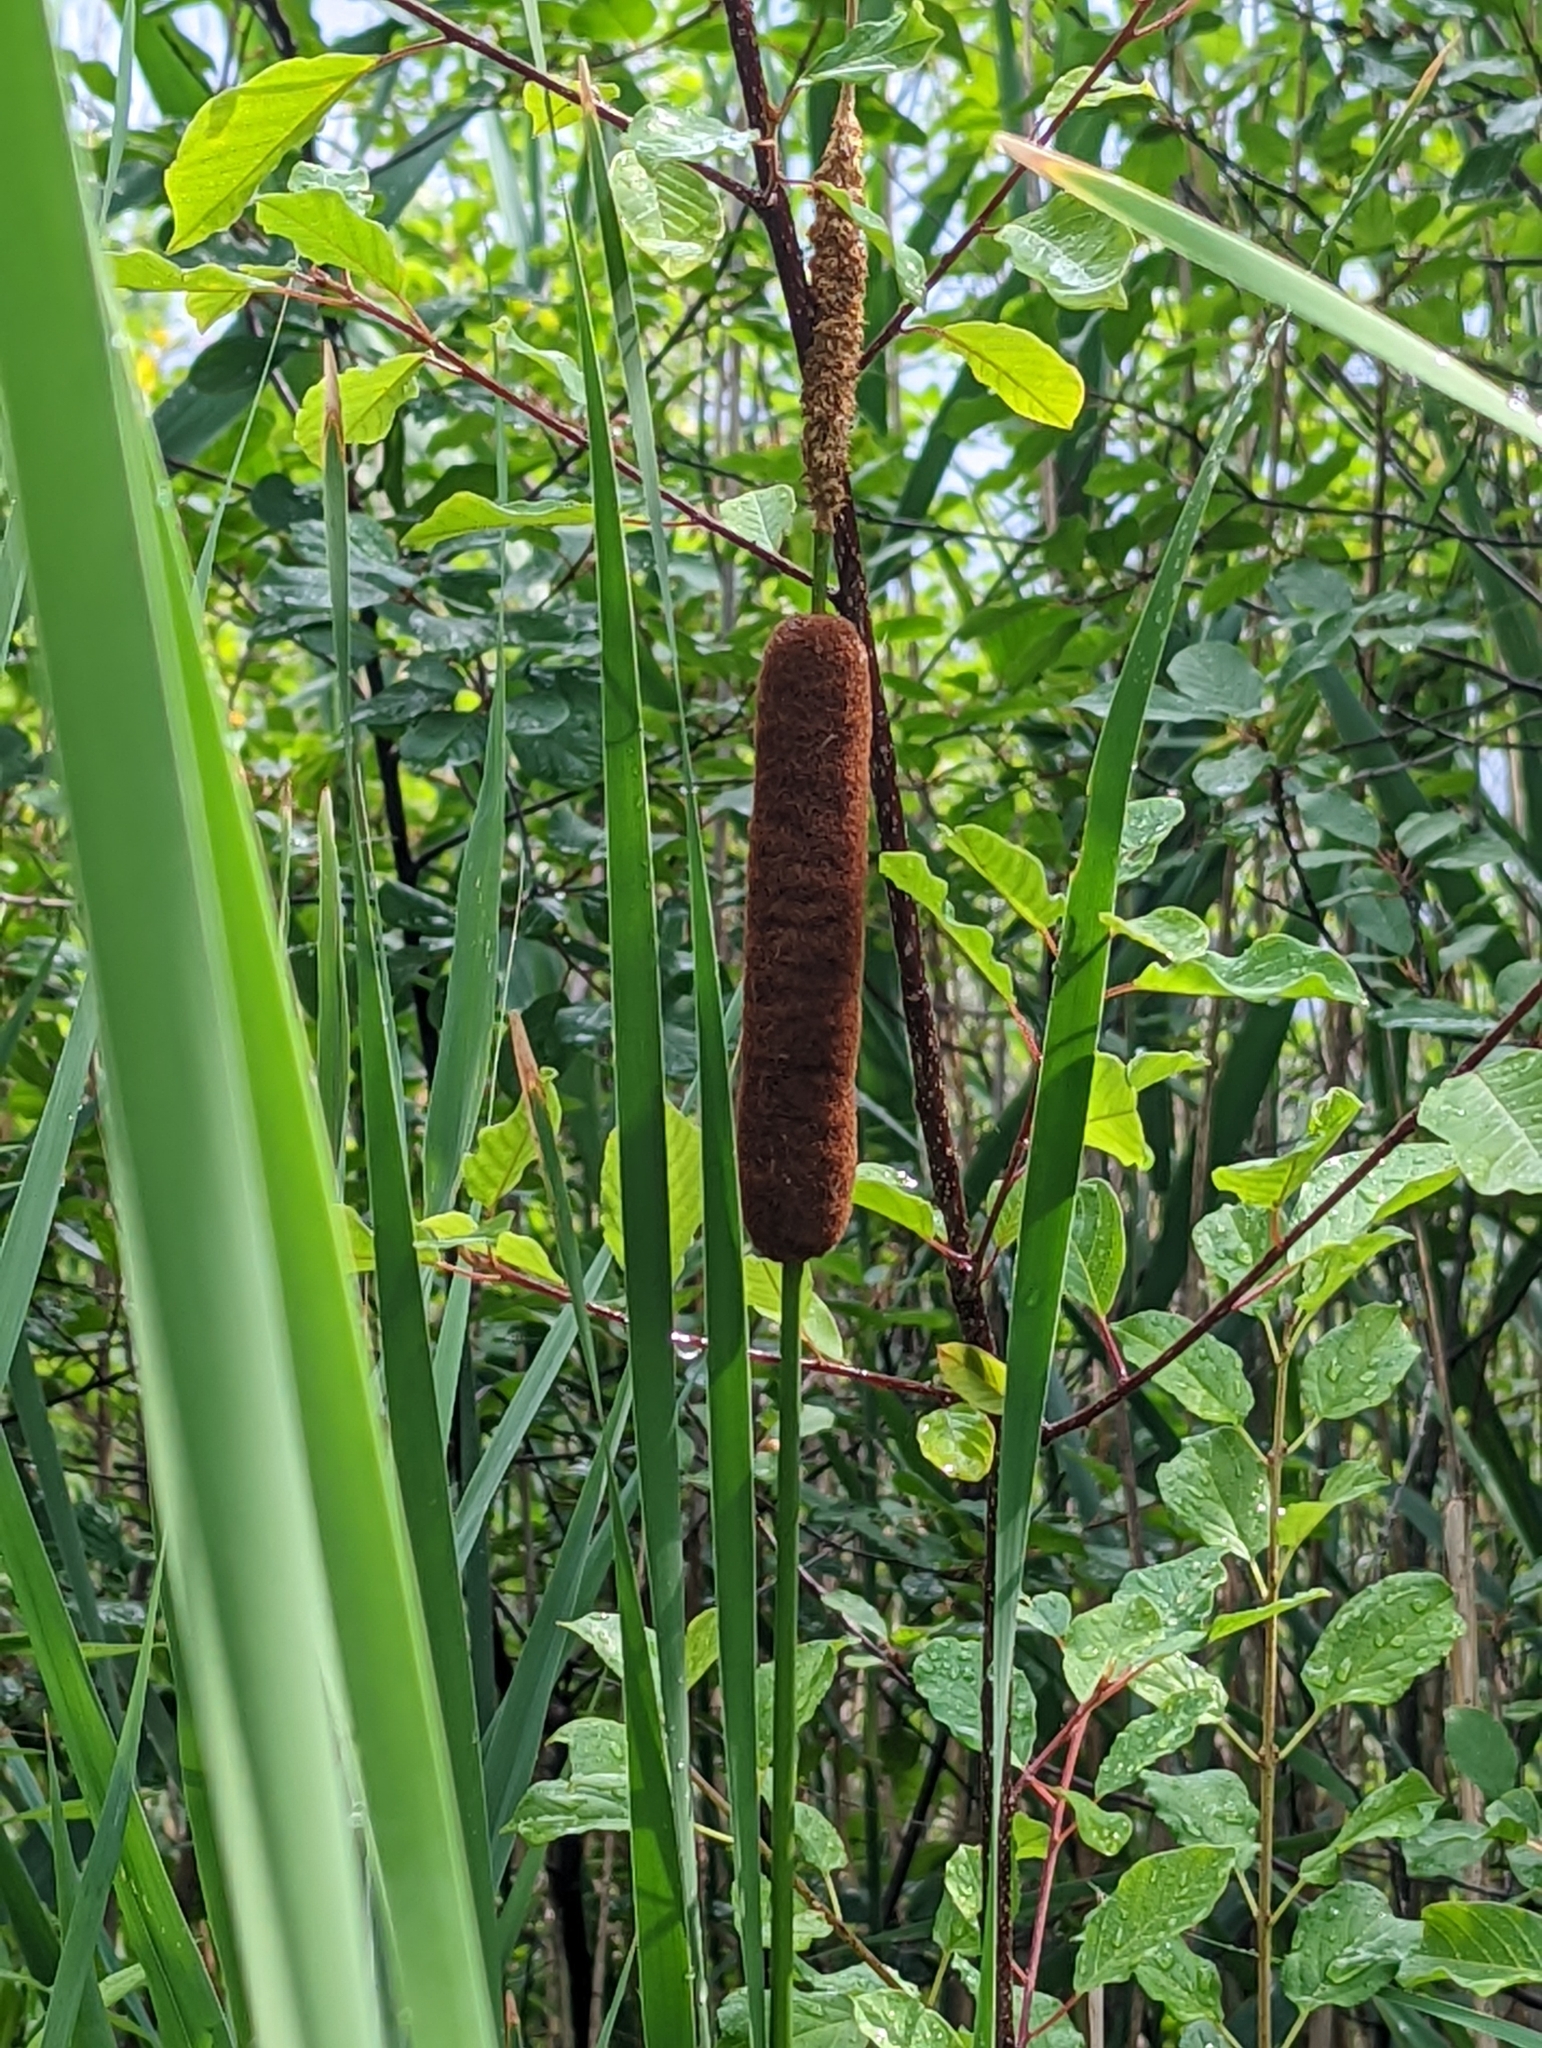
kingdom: Plantae
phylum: Tracheophyta
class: Liliopsida
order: Poales
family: Typhaceae
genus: Typha
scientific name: Typha angustifolia
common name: Lesser bulrush
